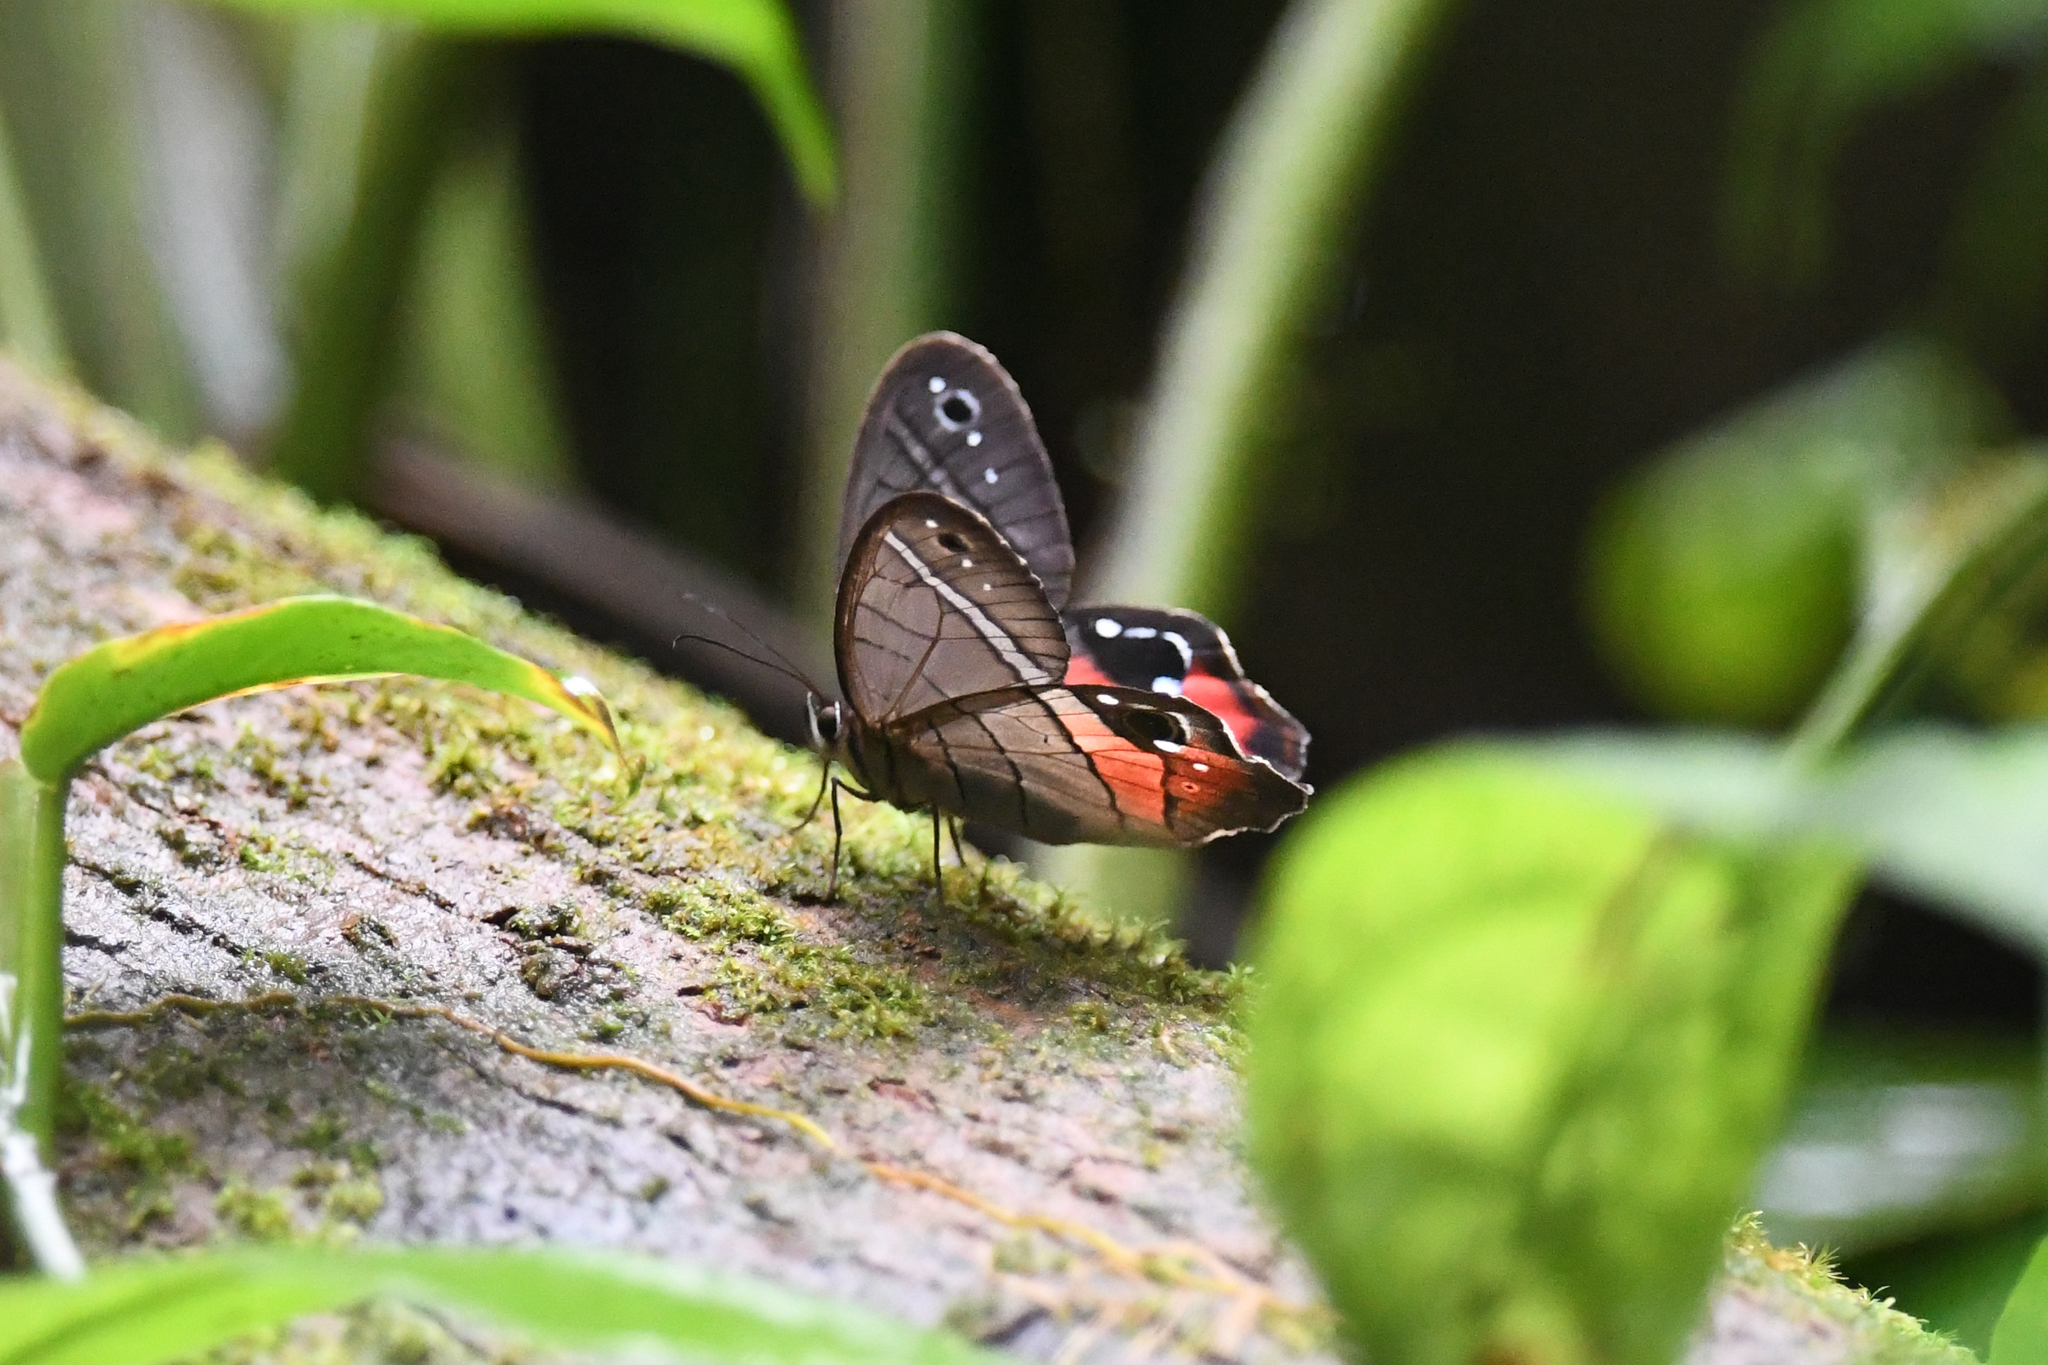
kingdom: Animalia
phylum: Arthropoda
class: Insecta
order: Lepidoptera
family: Nymphalidae
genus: Pierella
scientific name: Pierella helvina
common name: Red-washed satyr
